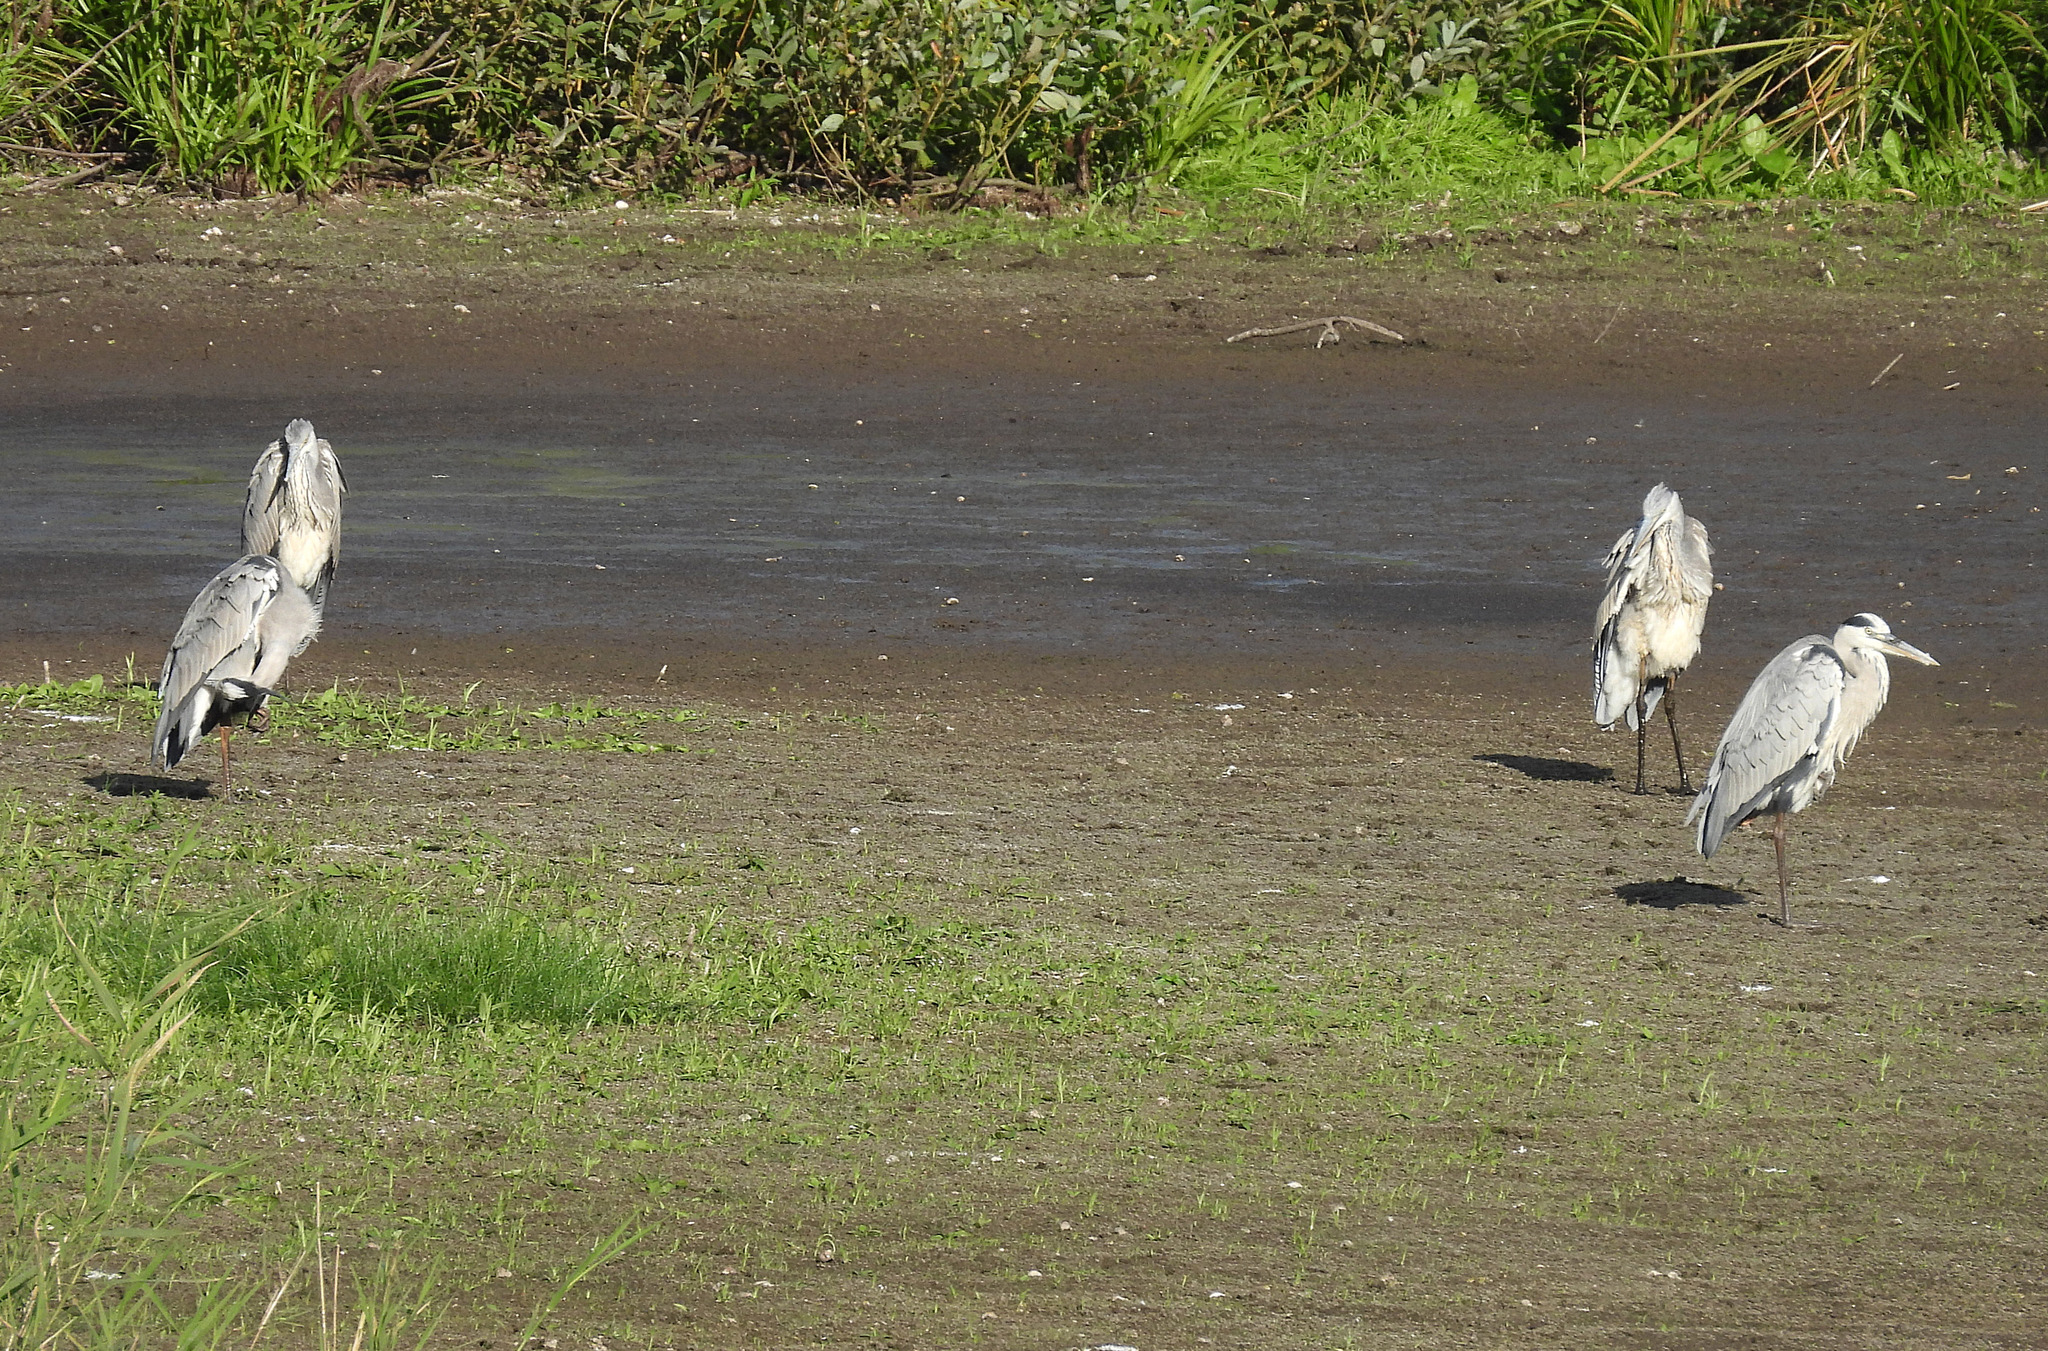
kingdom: Animalia
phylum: Chordata
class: Aves
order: Pelecaniformes
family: Ardeidae
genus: Ardea
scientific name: Ardea cinerea
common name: Grey heron
